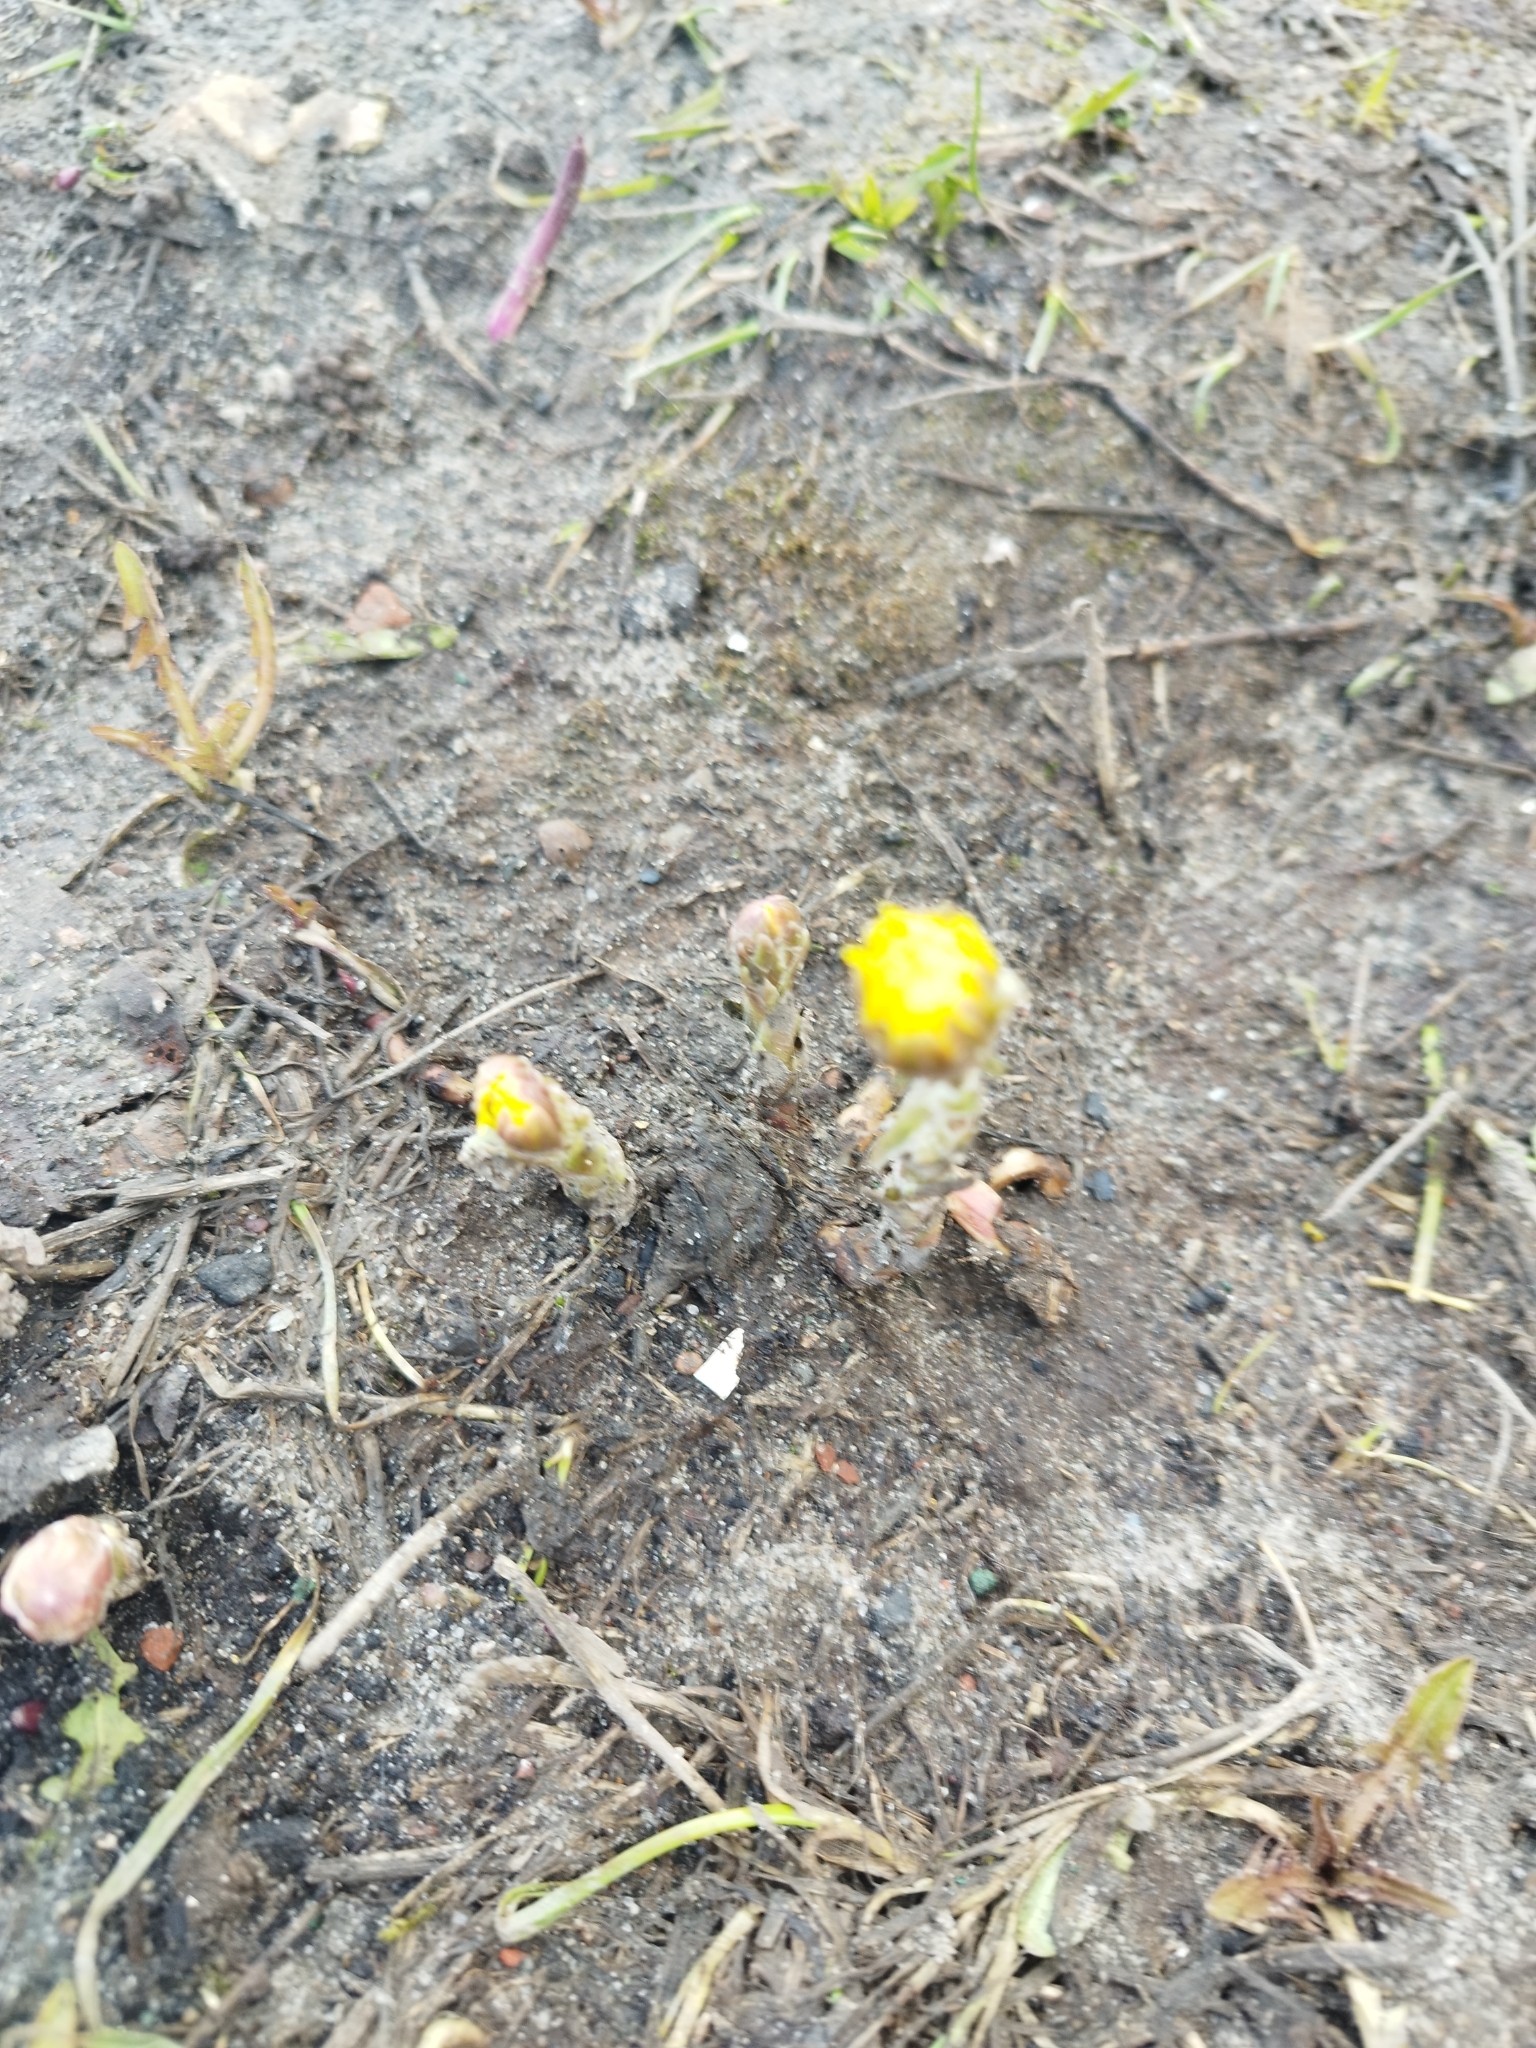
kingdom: Plantae
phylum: Tracheophyta
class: Magnoliopsida
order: Asterales
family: Asteraceae
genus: Tussilago
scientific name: Tussilago farfara
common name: Coltsfoot
